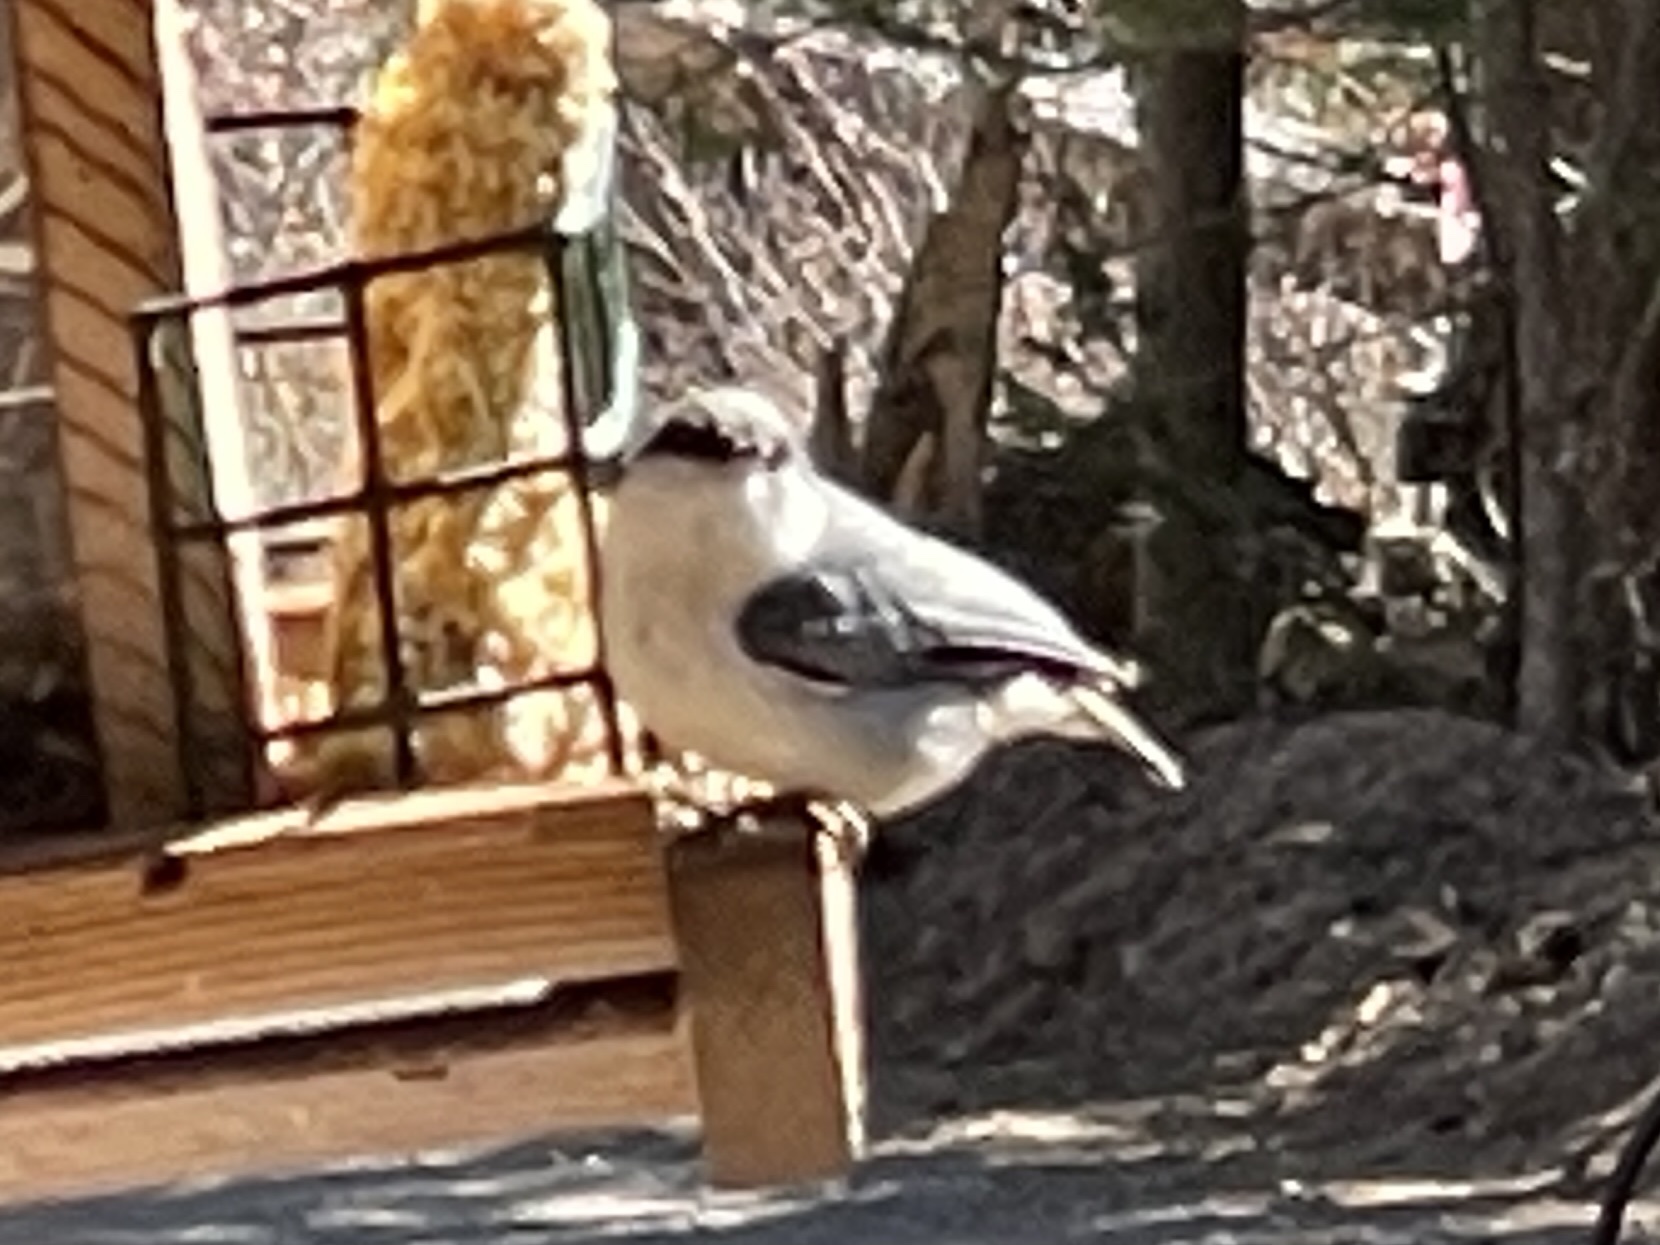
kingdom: Animalia
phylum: Chordata
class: Aves
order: Passeriformes
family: Sittidae
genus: Sitta
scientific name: Sitta pygmaea
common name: Pygmy nuthatch
